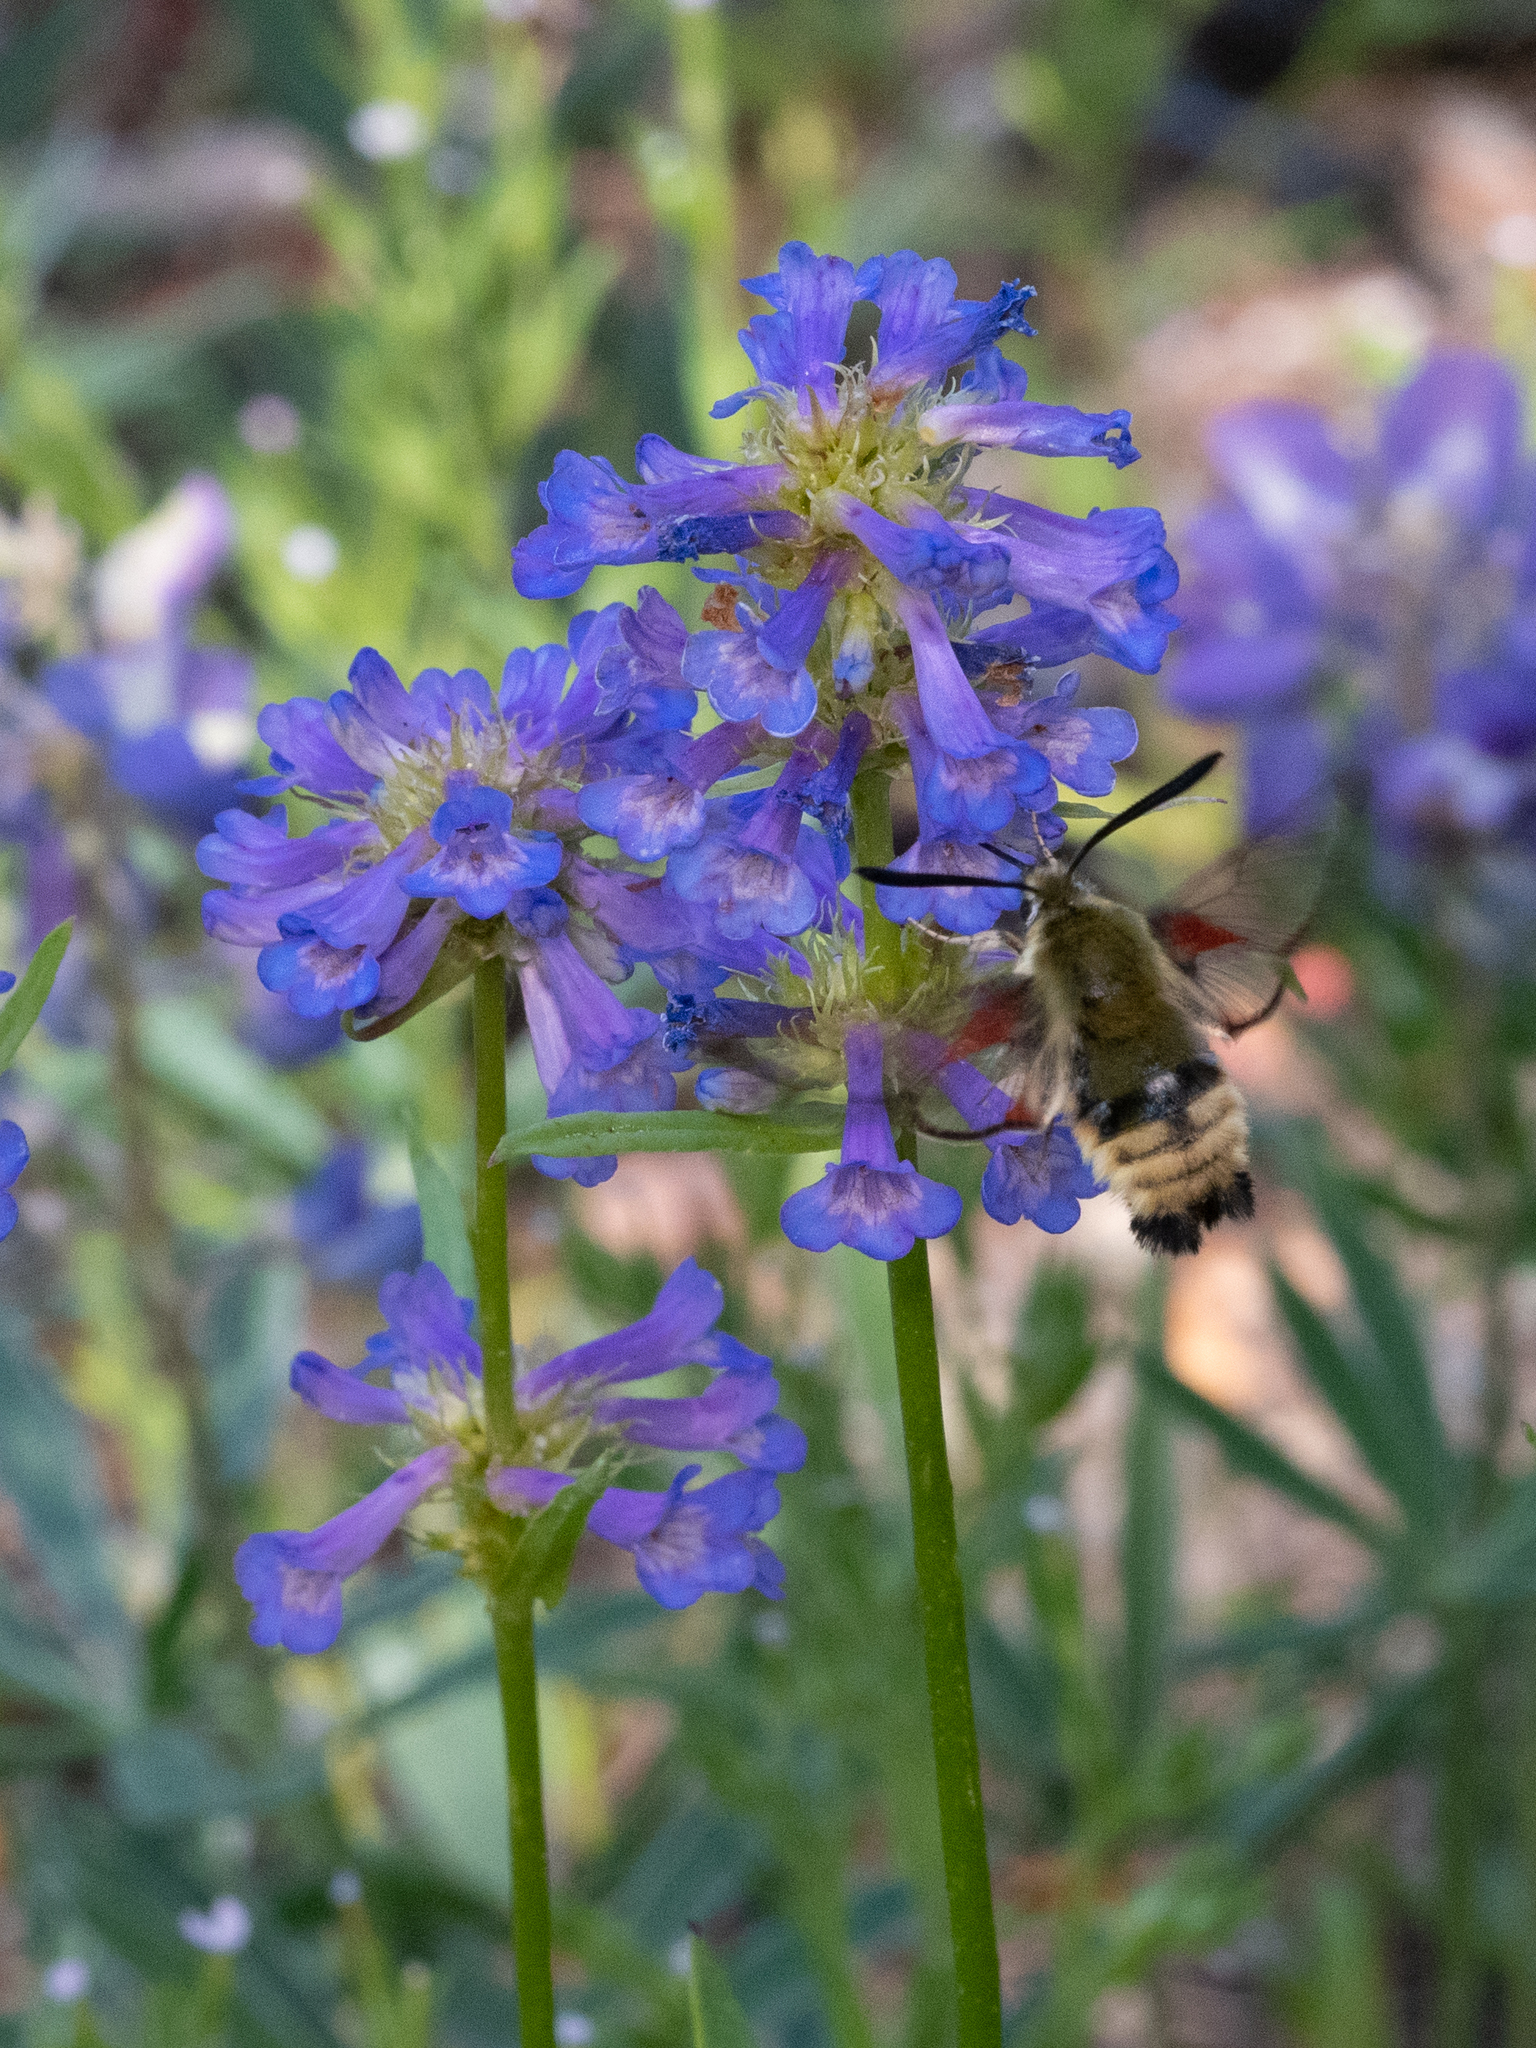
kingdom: Animalia
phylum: Arthropoda
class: Insecta
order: Lepidoptera
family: Sphingidae
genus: Hemaris
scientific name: Hemaris thetis
